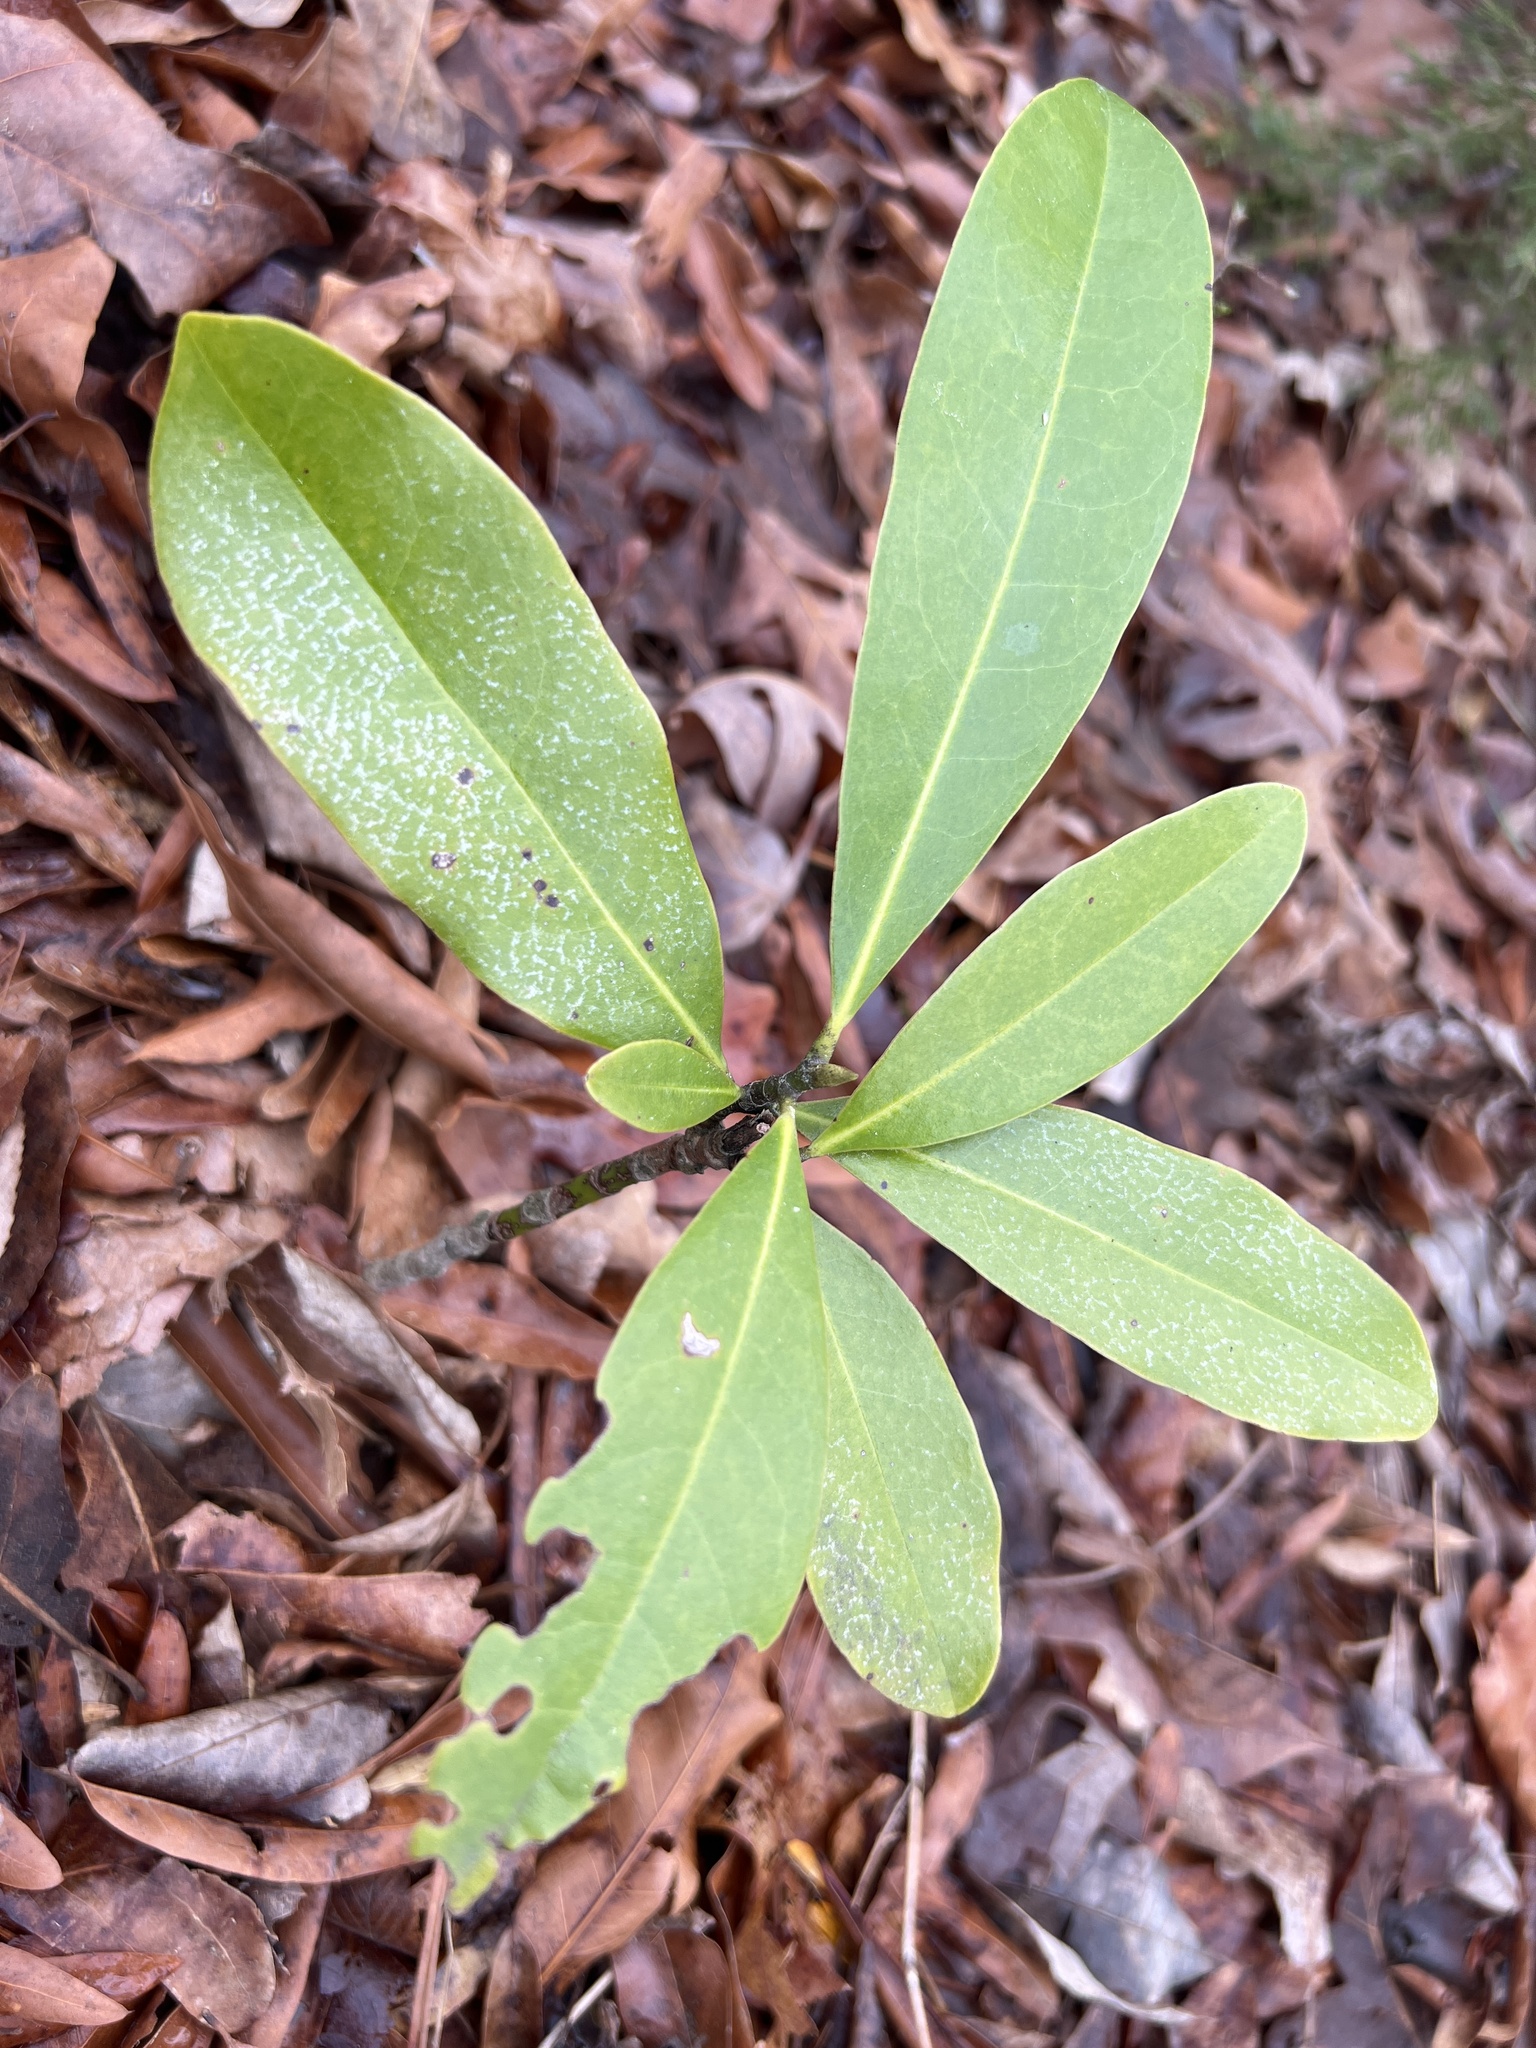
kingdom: Plantae
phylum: Tracheophyta
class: Magnoliopsida
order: Magnoliales
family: Magnoliaceae
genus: Magnolia
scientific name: Magnolia grandiflora
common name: Southern magnolia
